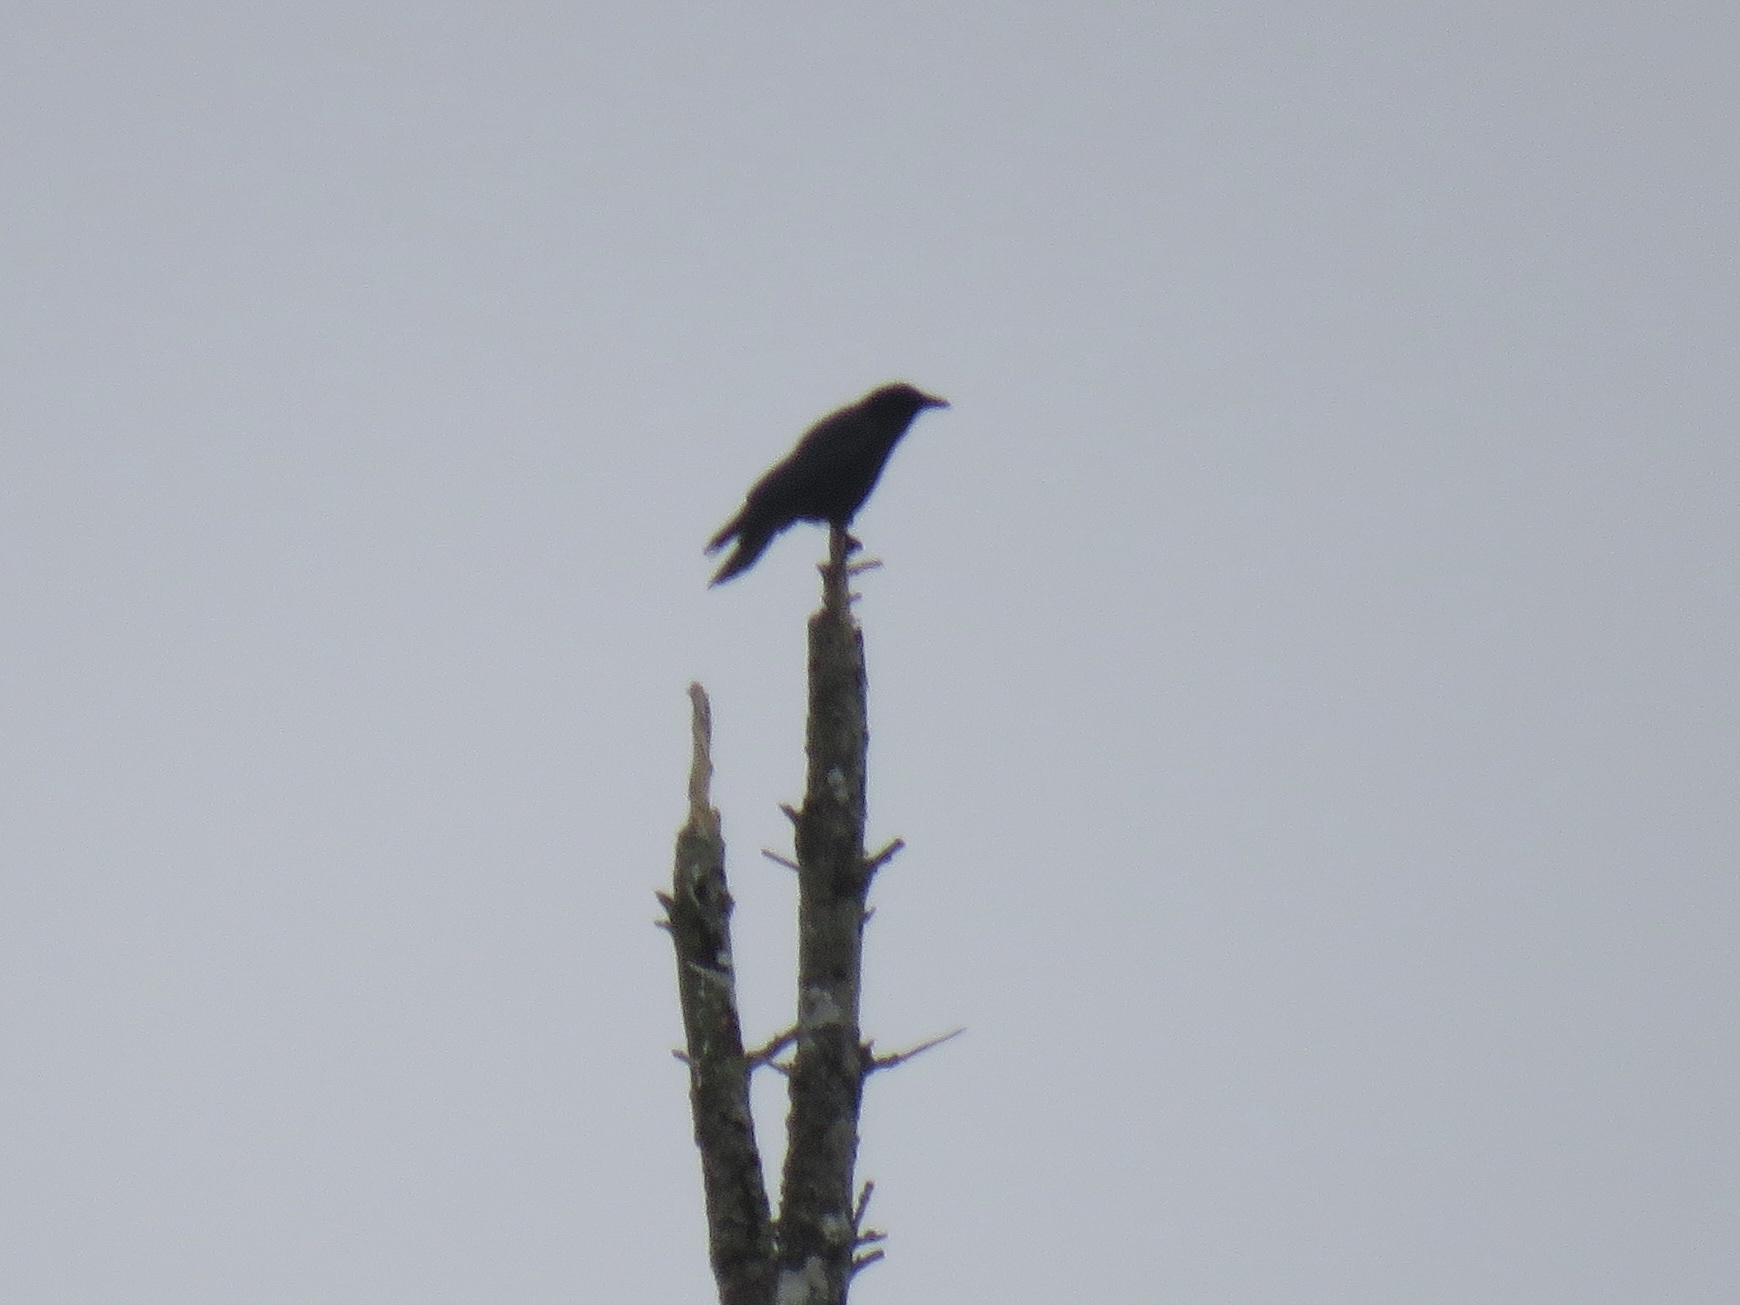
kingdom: Animalia
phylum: Chordata
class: Aves
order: Passeriformes
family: Corvidae
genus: Corvus
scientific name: Corvus brachyrhynchos
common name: American crow
